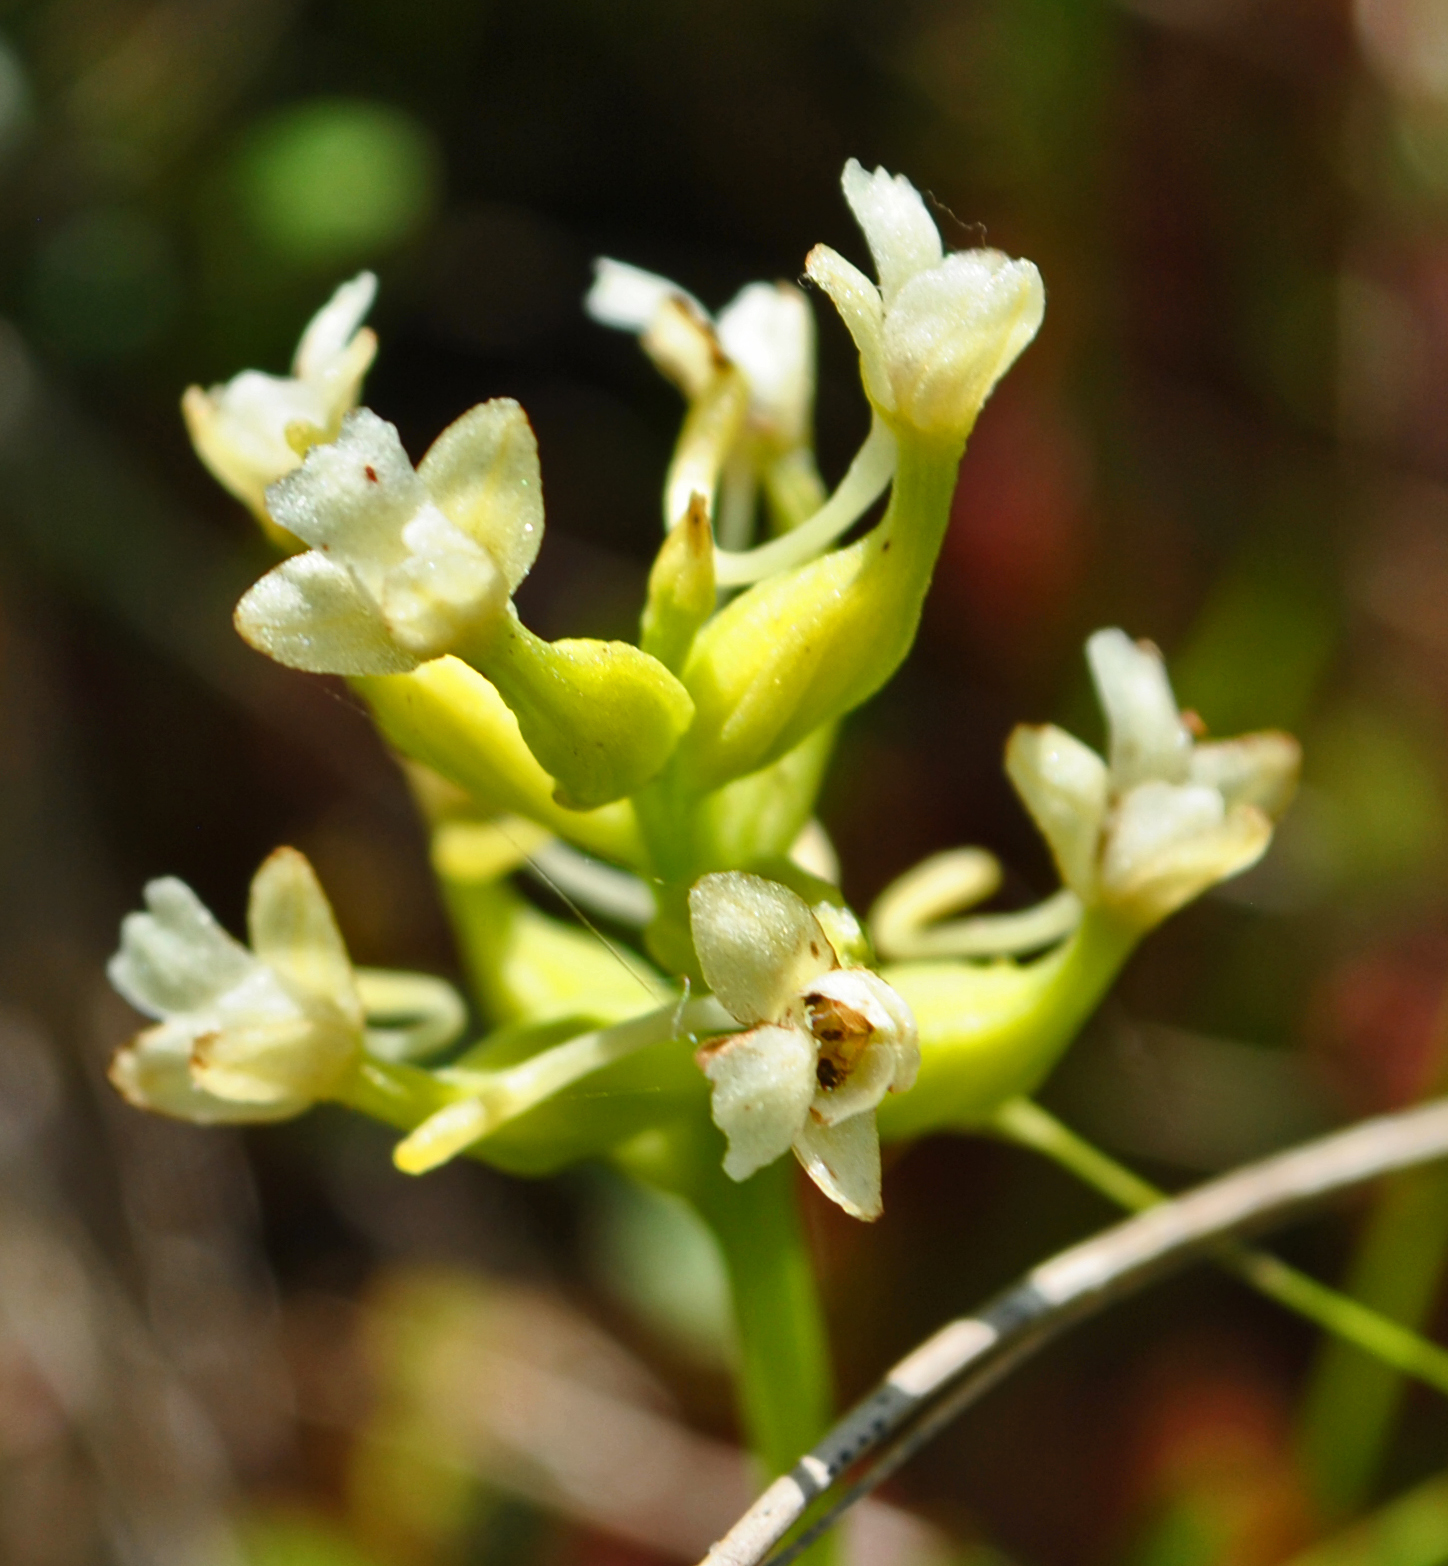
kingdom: Plantae
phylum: Tracheophyta
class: Liliopsida
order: Asparagales
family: Orchidaceae
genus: Platanthera
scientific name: Platanthera clavellata
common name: Club-spur orchid
